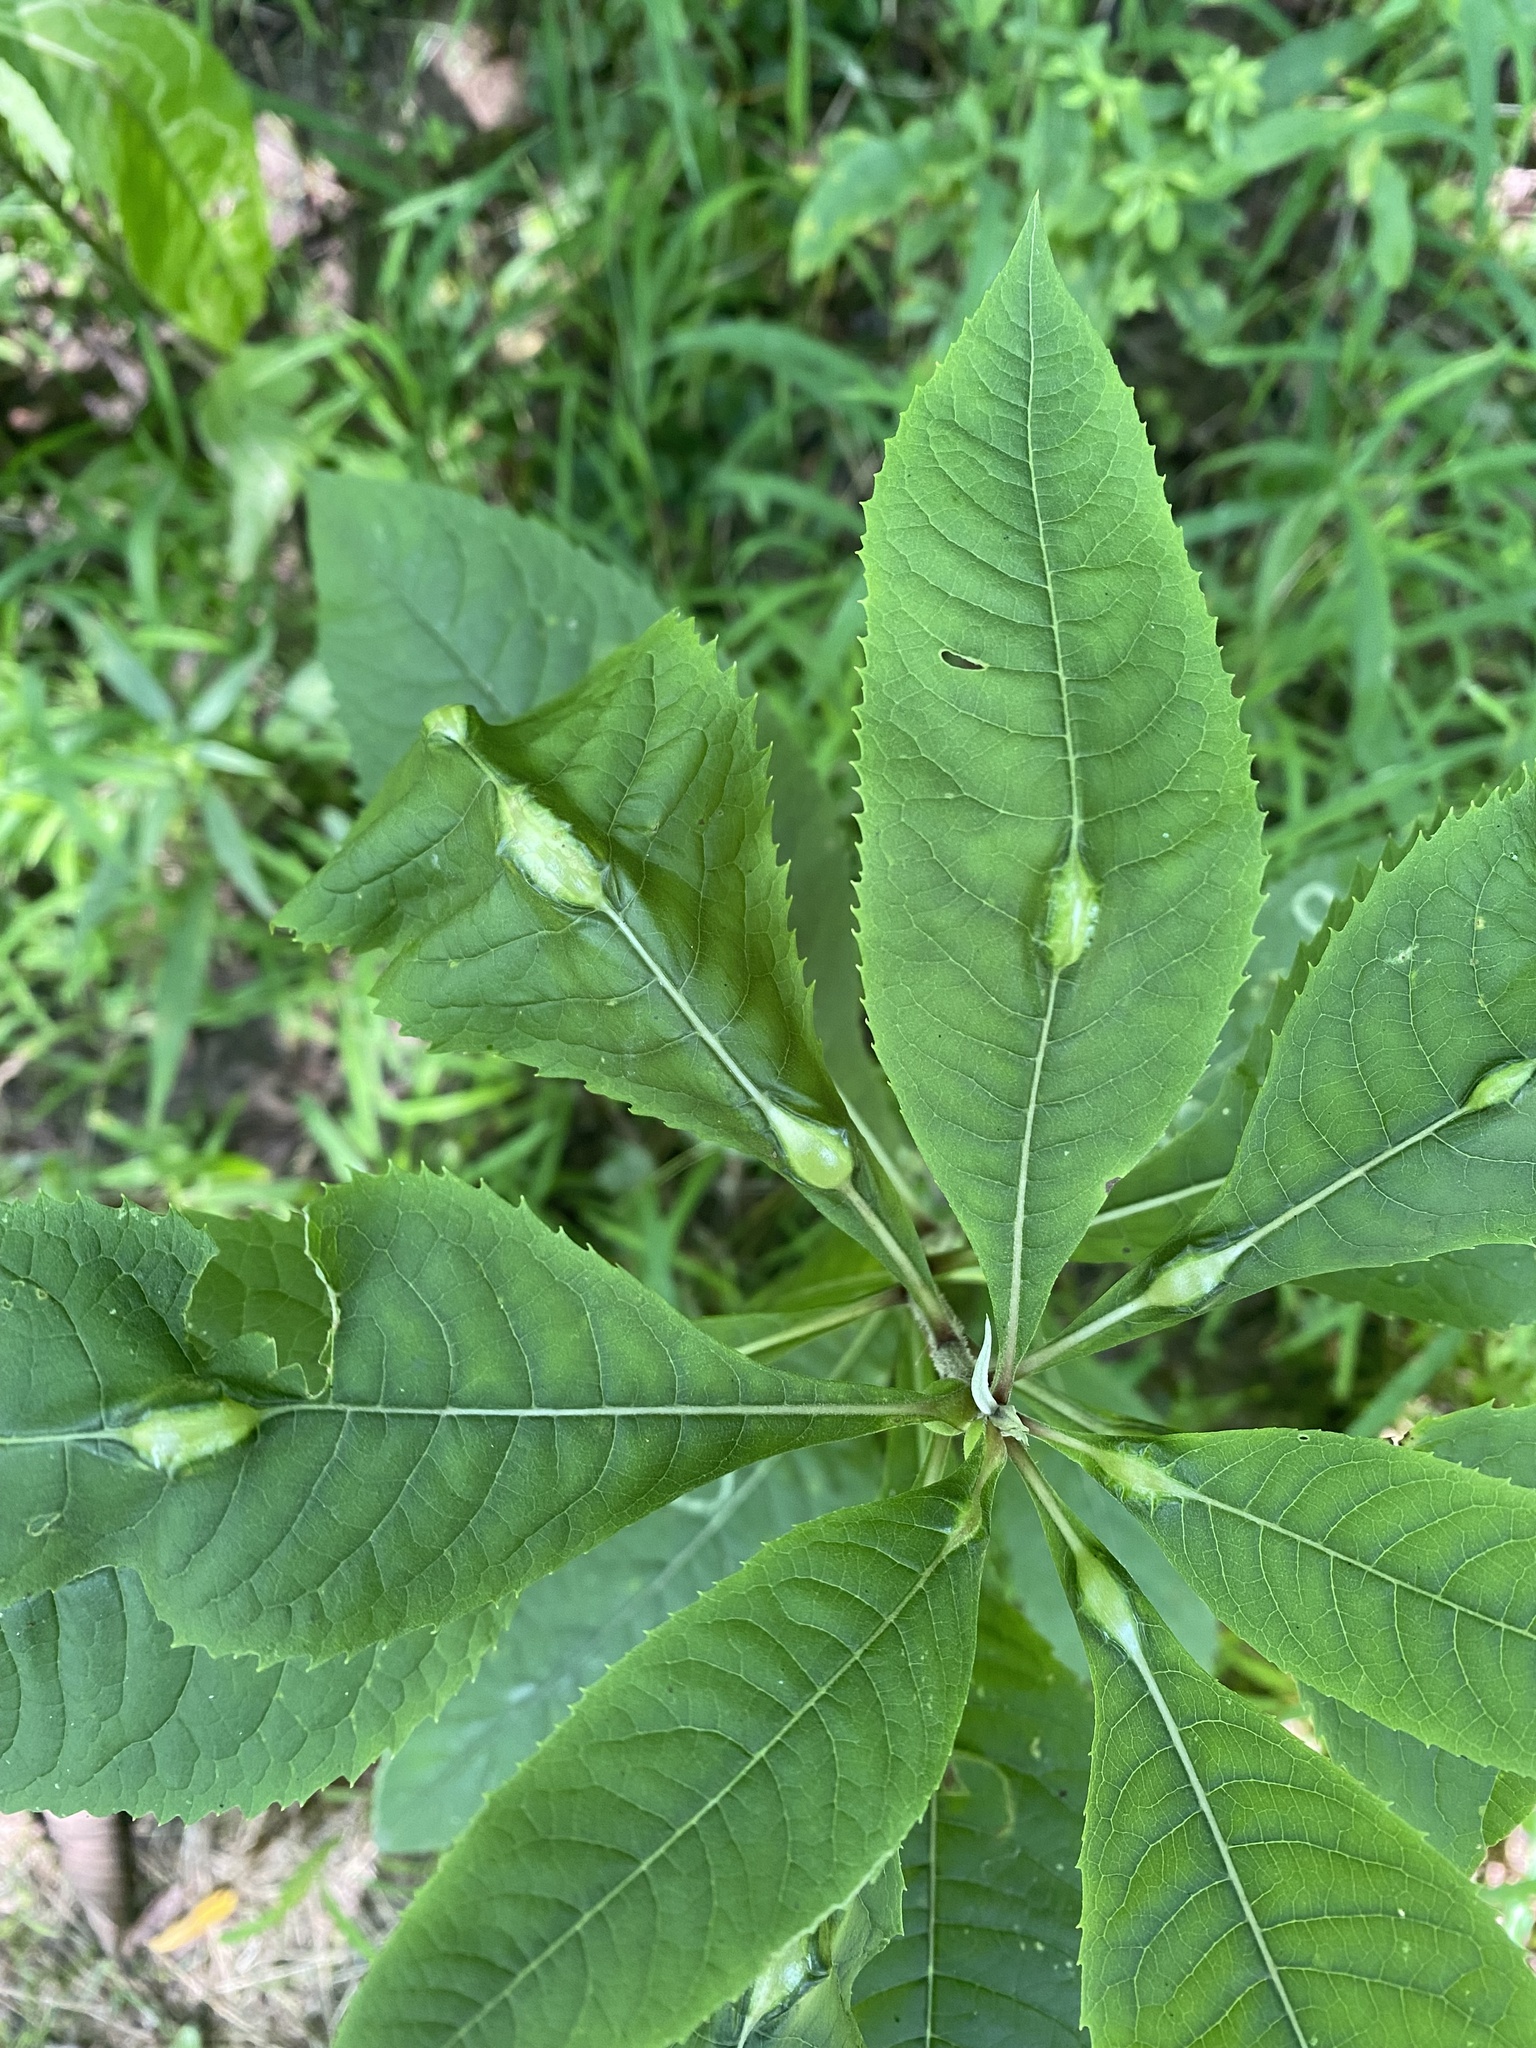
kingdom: Animalia
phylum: Arthropoda
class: Insecta
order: Diptera
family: Cecidomyiidae
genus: Neolasioptera
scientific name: Neolasioptera vernoniae
